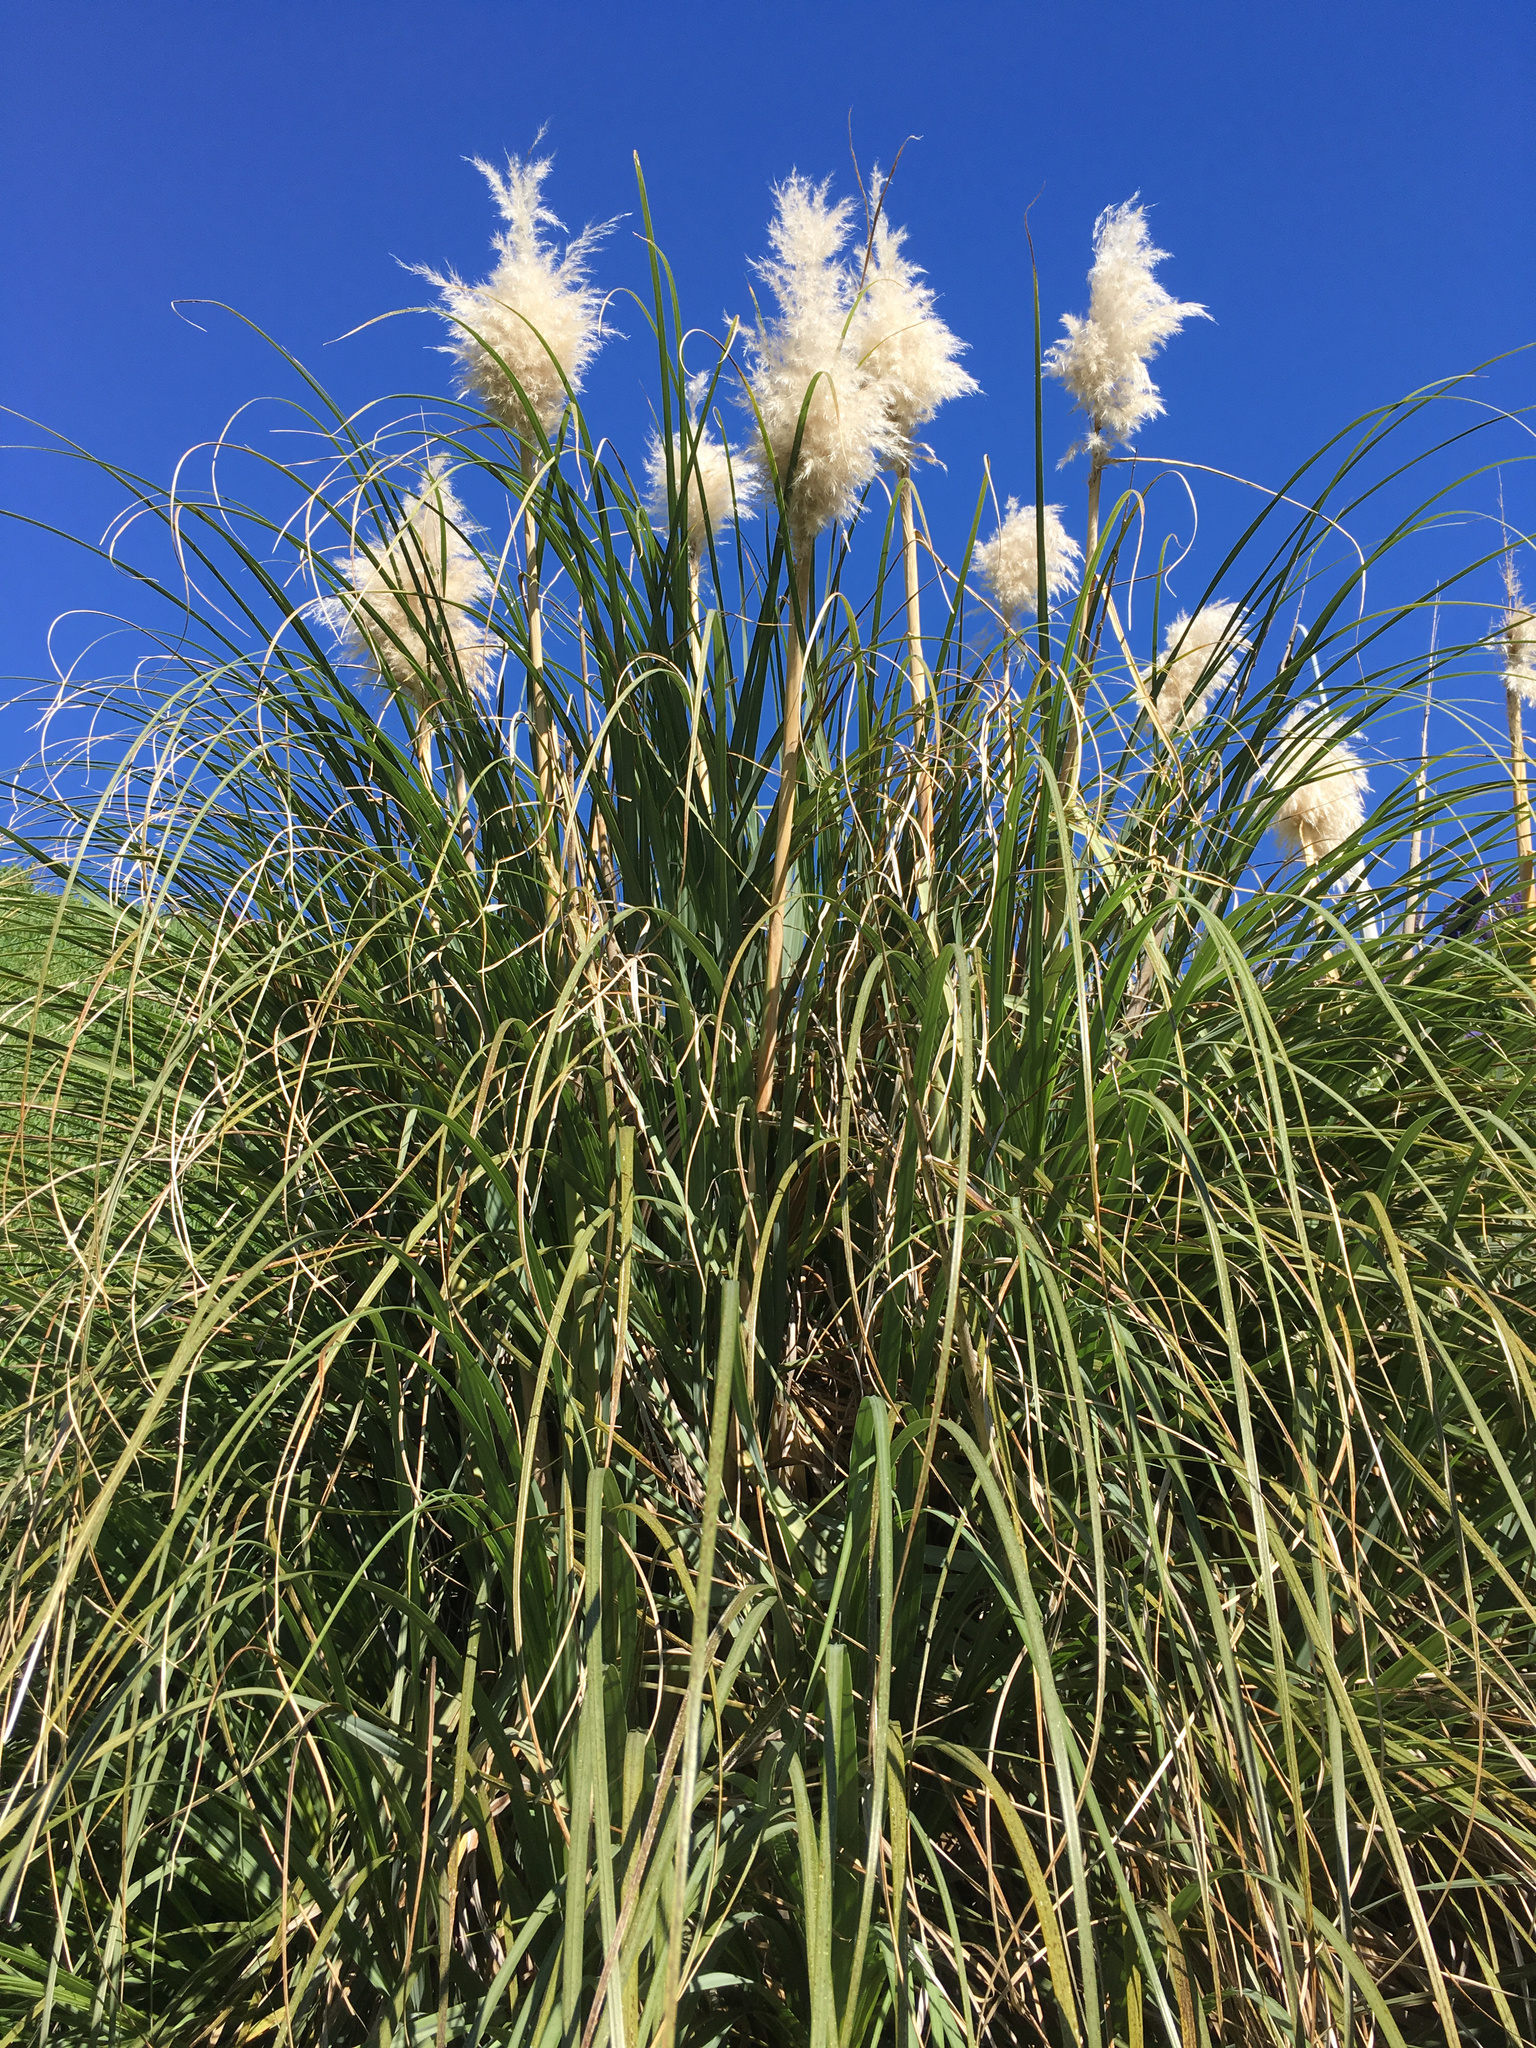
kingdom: Plantae
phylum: Tracheophyta
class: Liliopsida
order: Poales
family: Poaceae
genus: Cortaderia
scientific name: Cortaderia selloana
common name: Uruguayan pampas grass
